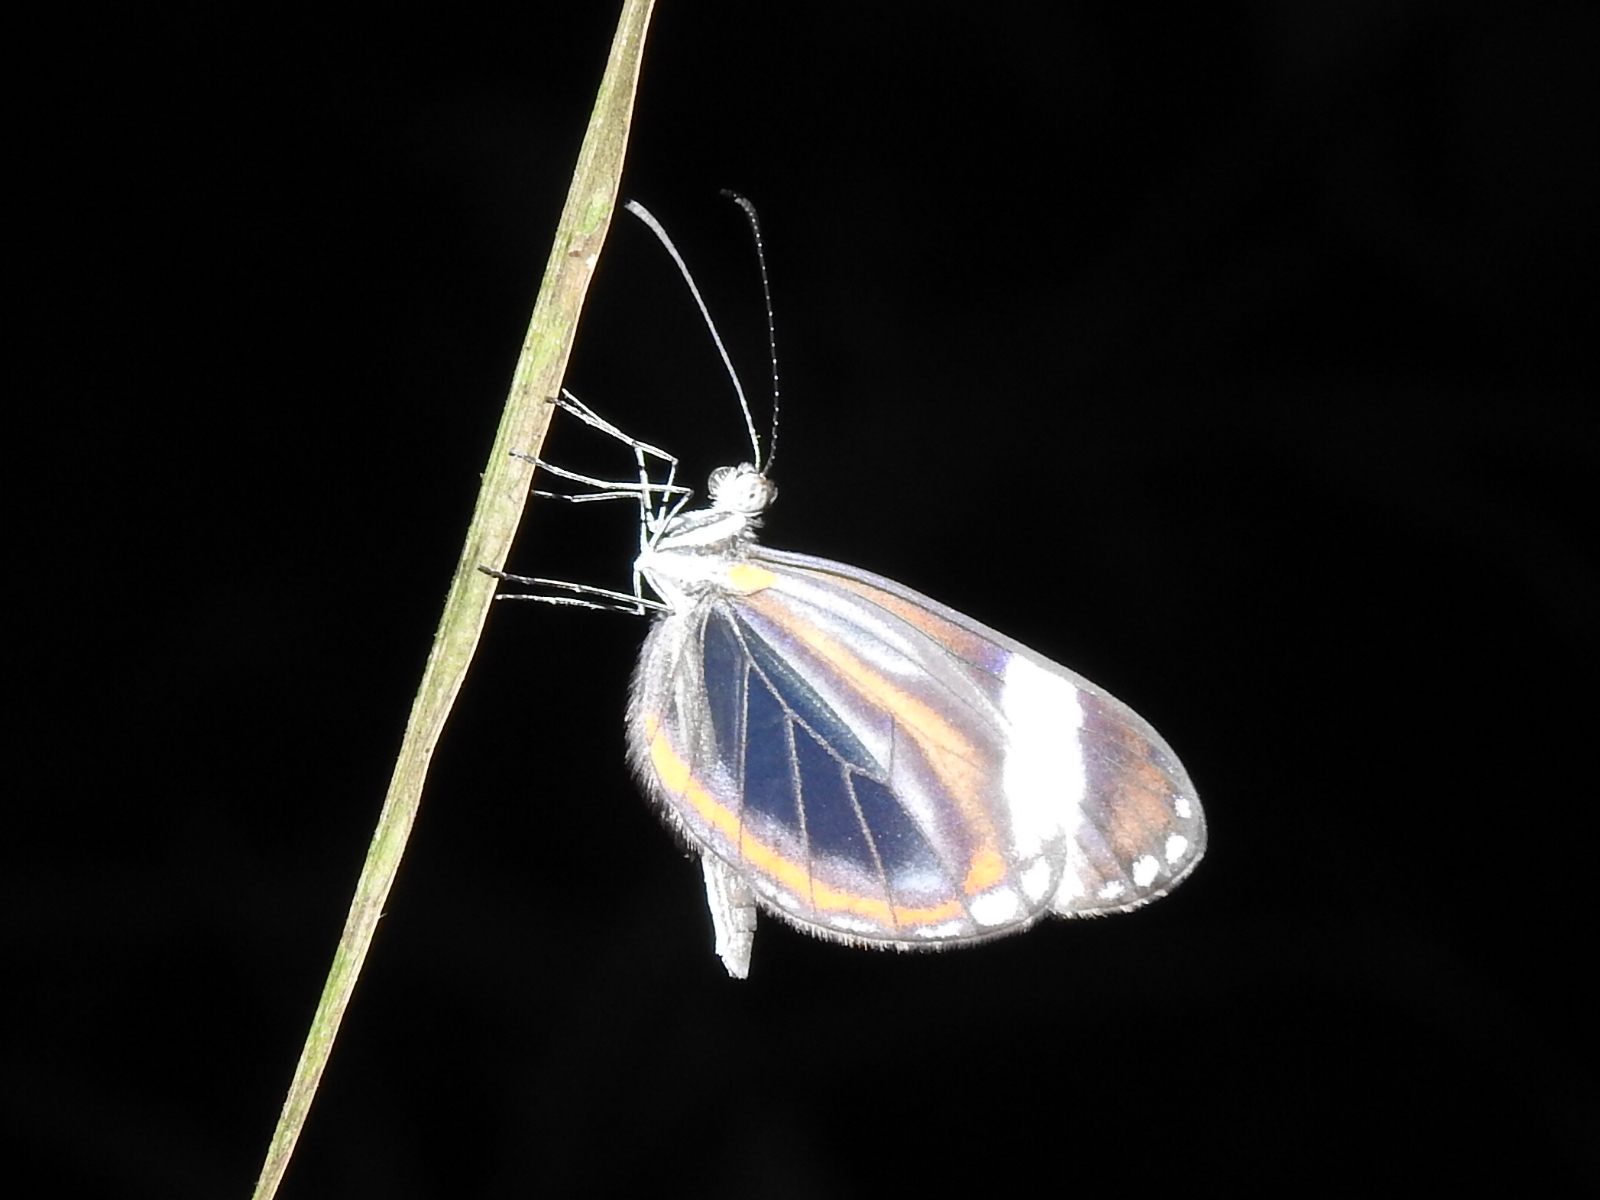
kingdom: Animalia
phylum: Arthropoda
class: Insecta
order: Lepidoptera
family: Pieridae
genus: Dismorphia
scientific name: Dismorphia theucharila
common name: Clearwing mimic-white
